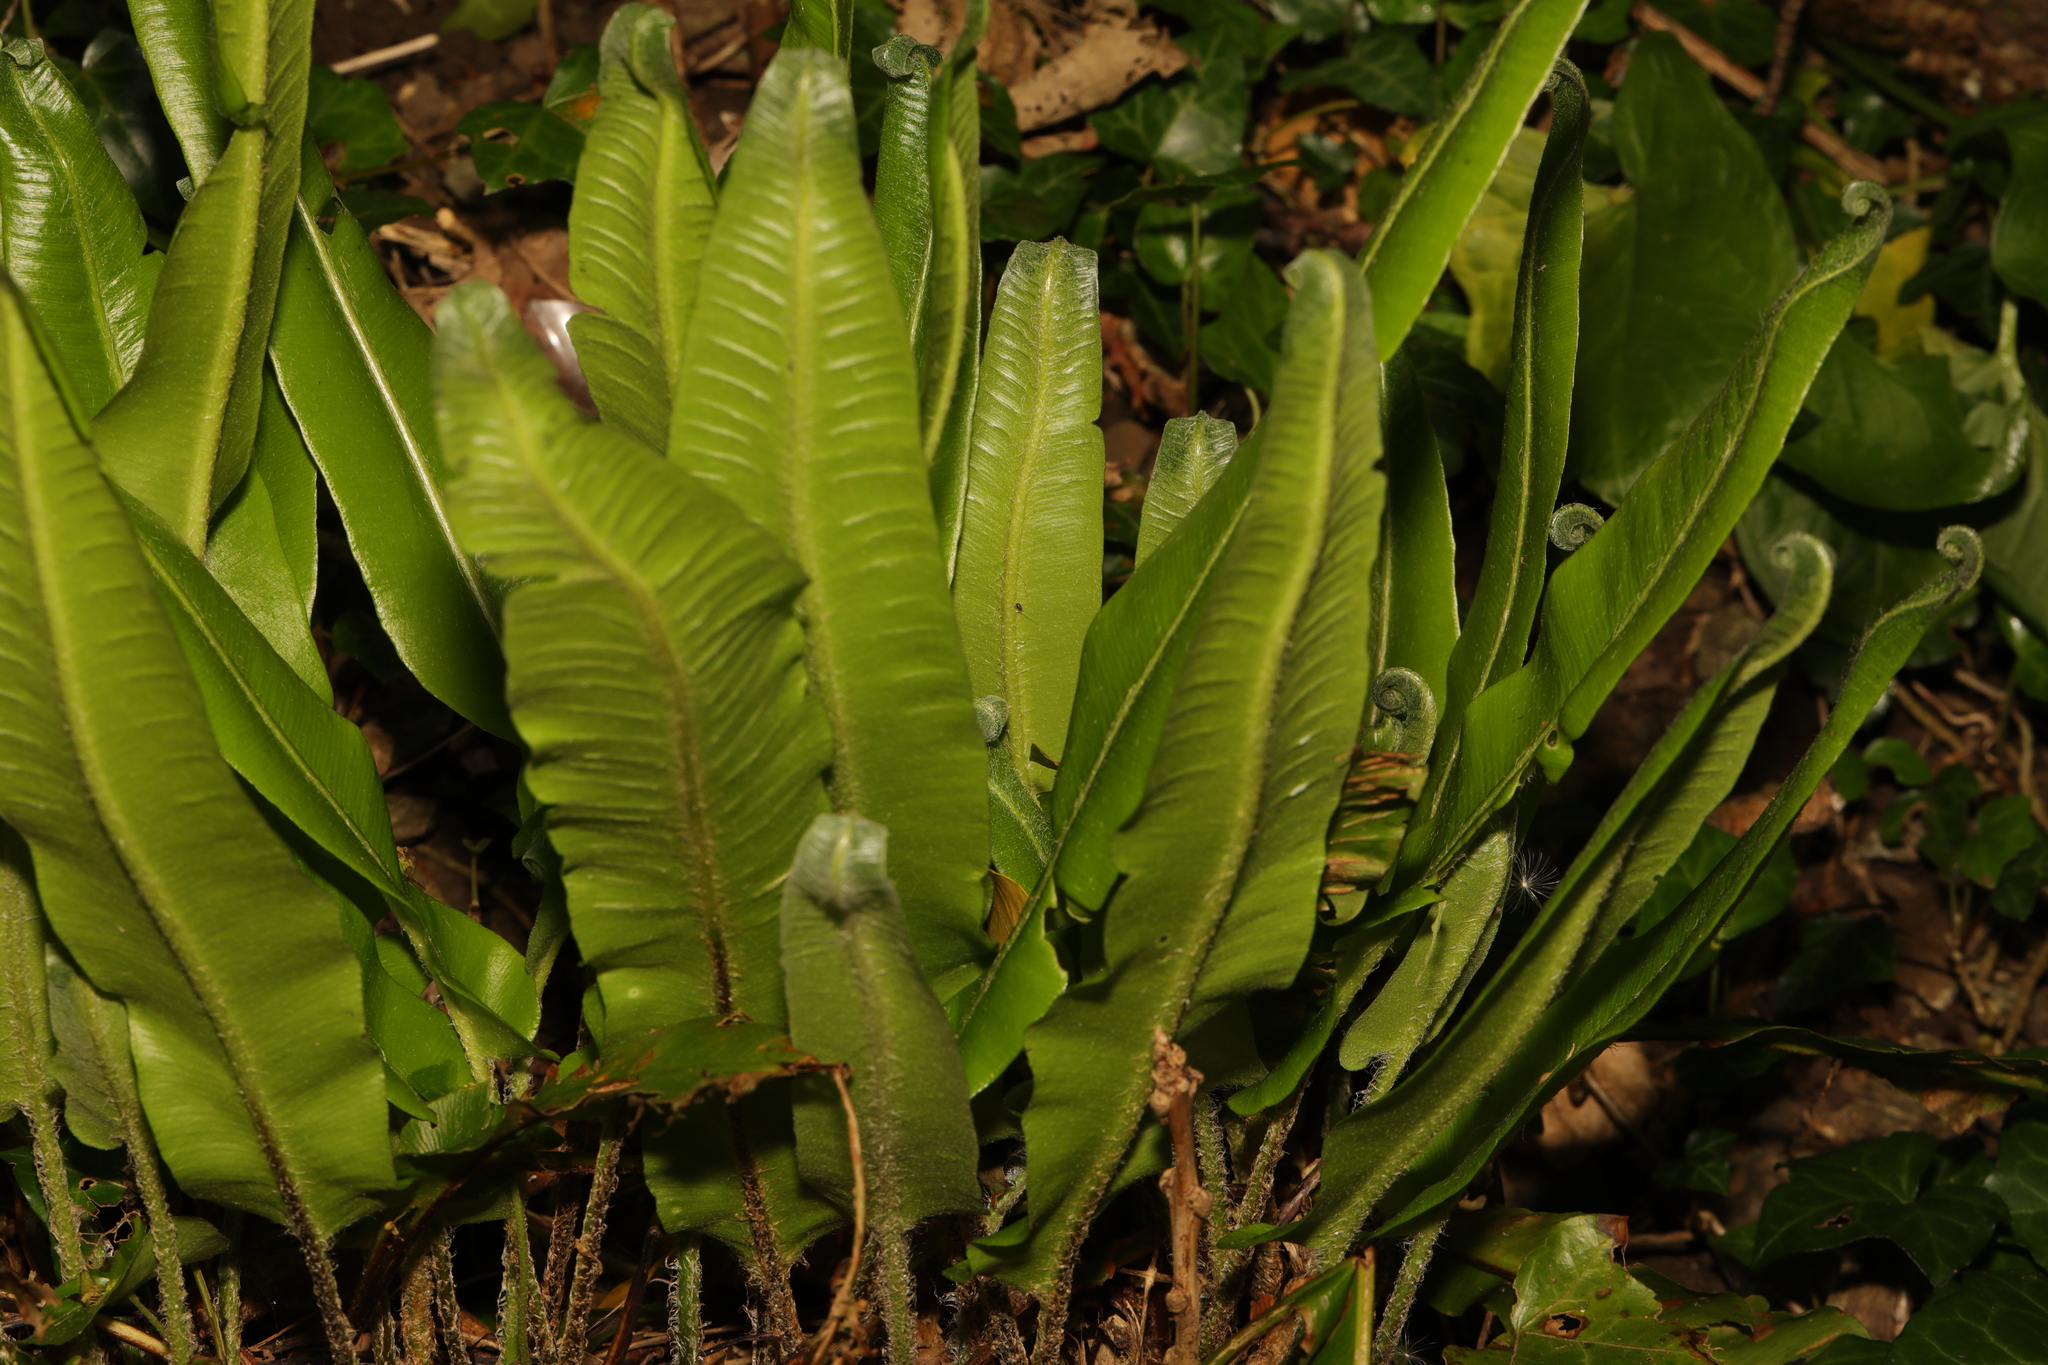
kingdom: Plantae
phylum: Tracheophyta
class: Polypodiopsida
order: Polypodiales
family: Aspleniaceae
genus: Asplenium
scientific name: Asplenium scolopendrium
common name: Hart's-tongue fern
